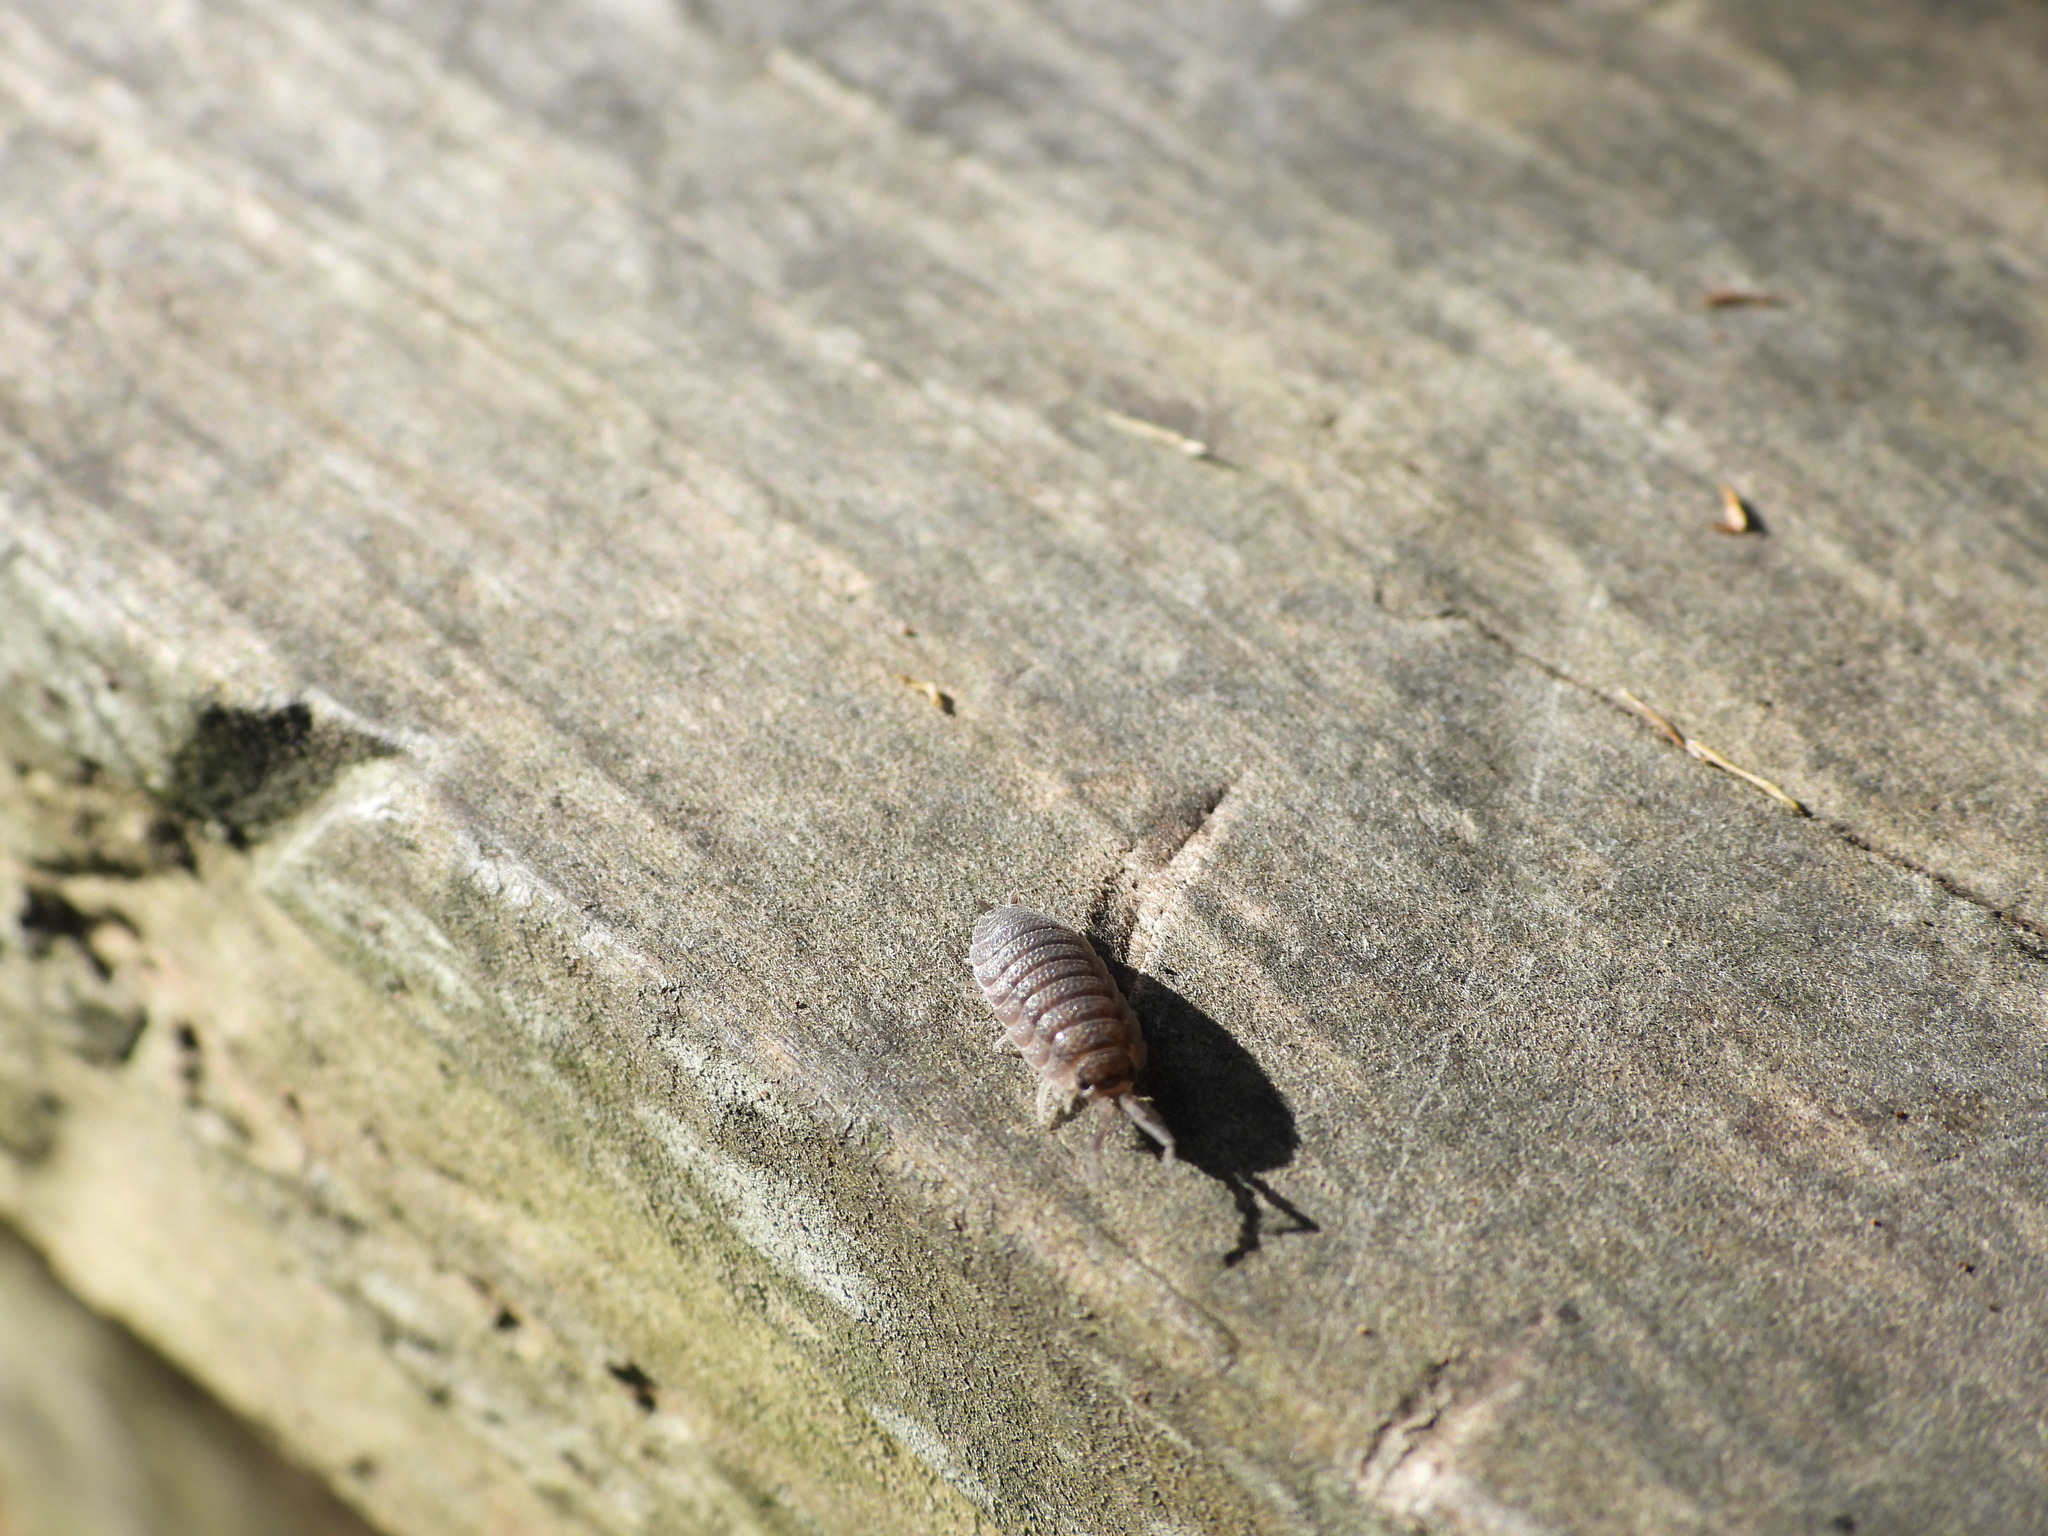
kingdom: Animalia
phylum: Arthropoda
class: Malacostraca
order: Isopoda
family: Porcellionidae
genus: Porcellio
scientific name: Porcellio scaber
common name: Common rough woodlouse
